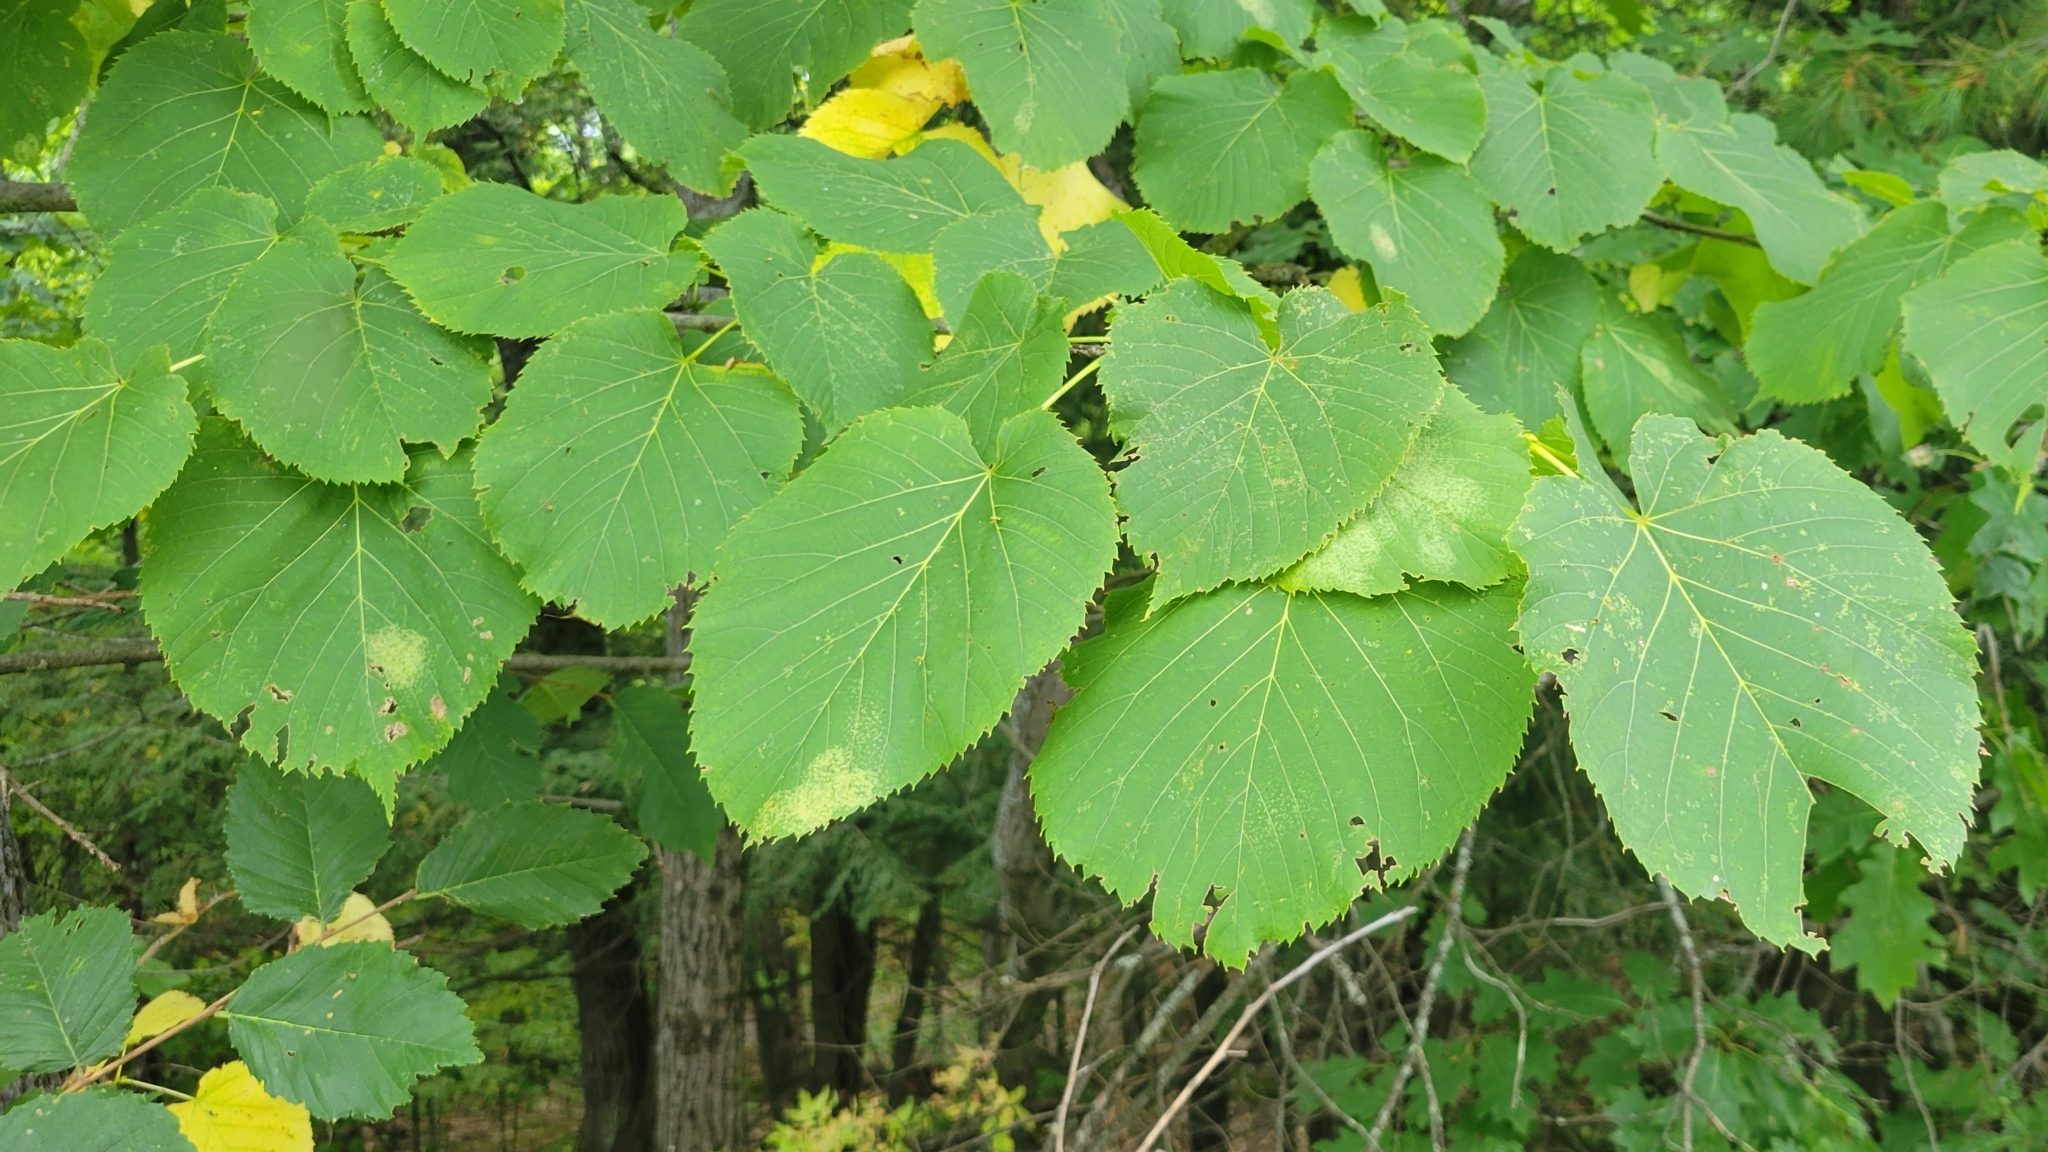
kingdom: Plantae
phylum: Tracheophyta
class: Magnoliopsida
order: Malvales
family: Malvaceae
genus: Tilia
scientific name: Tilia americana
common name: Basswood
